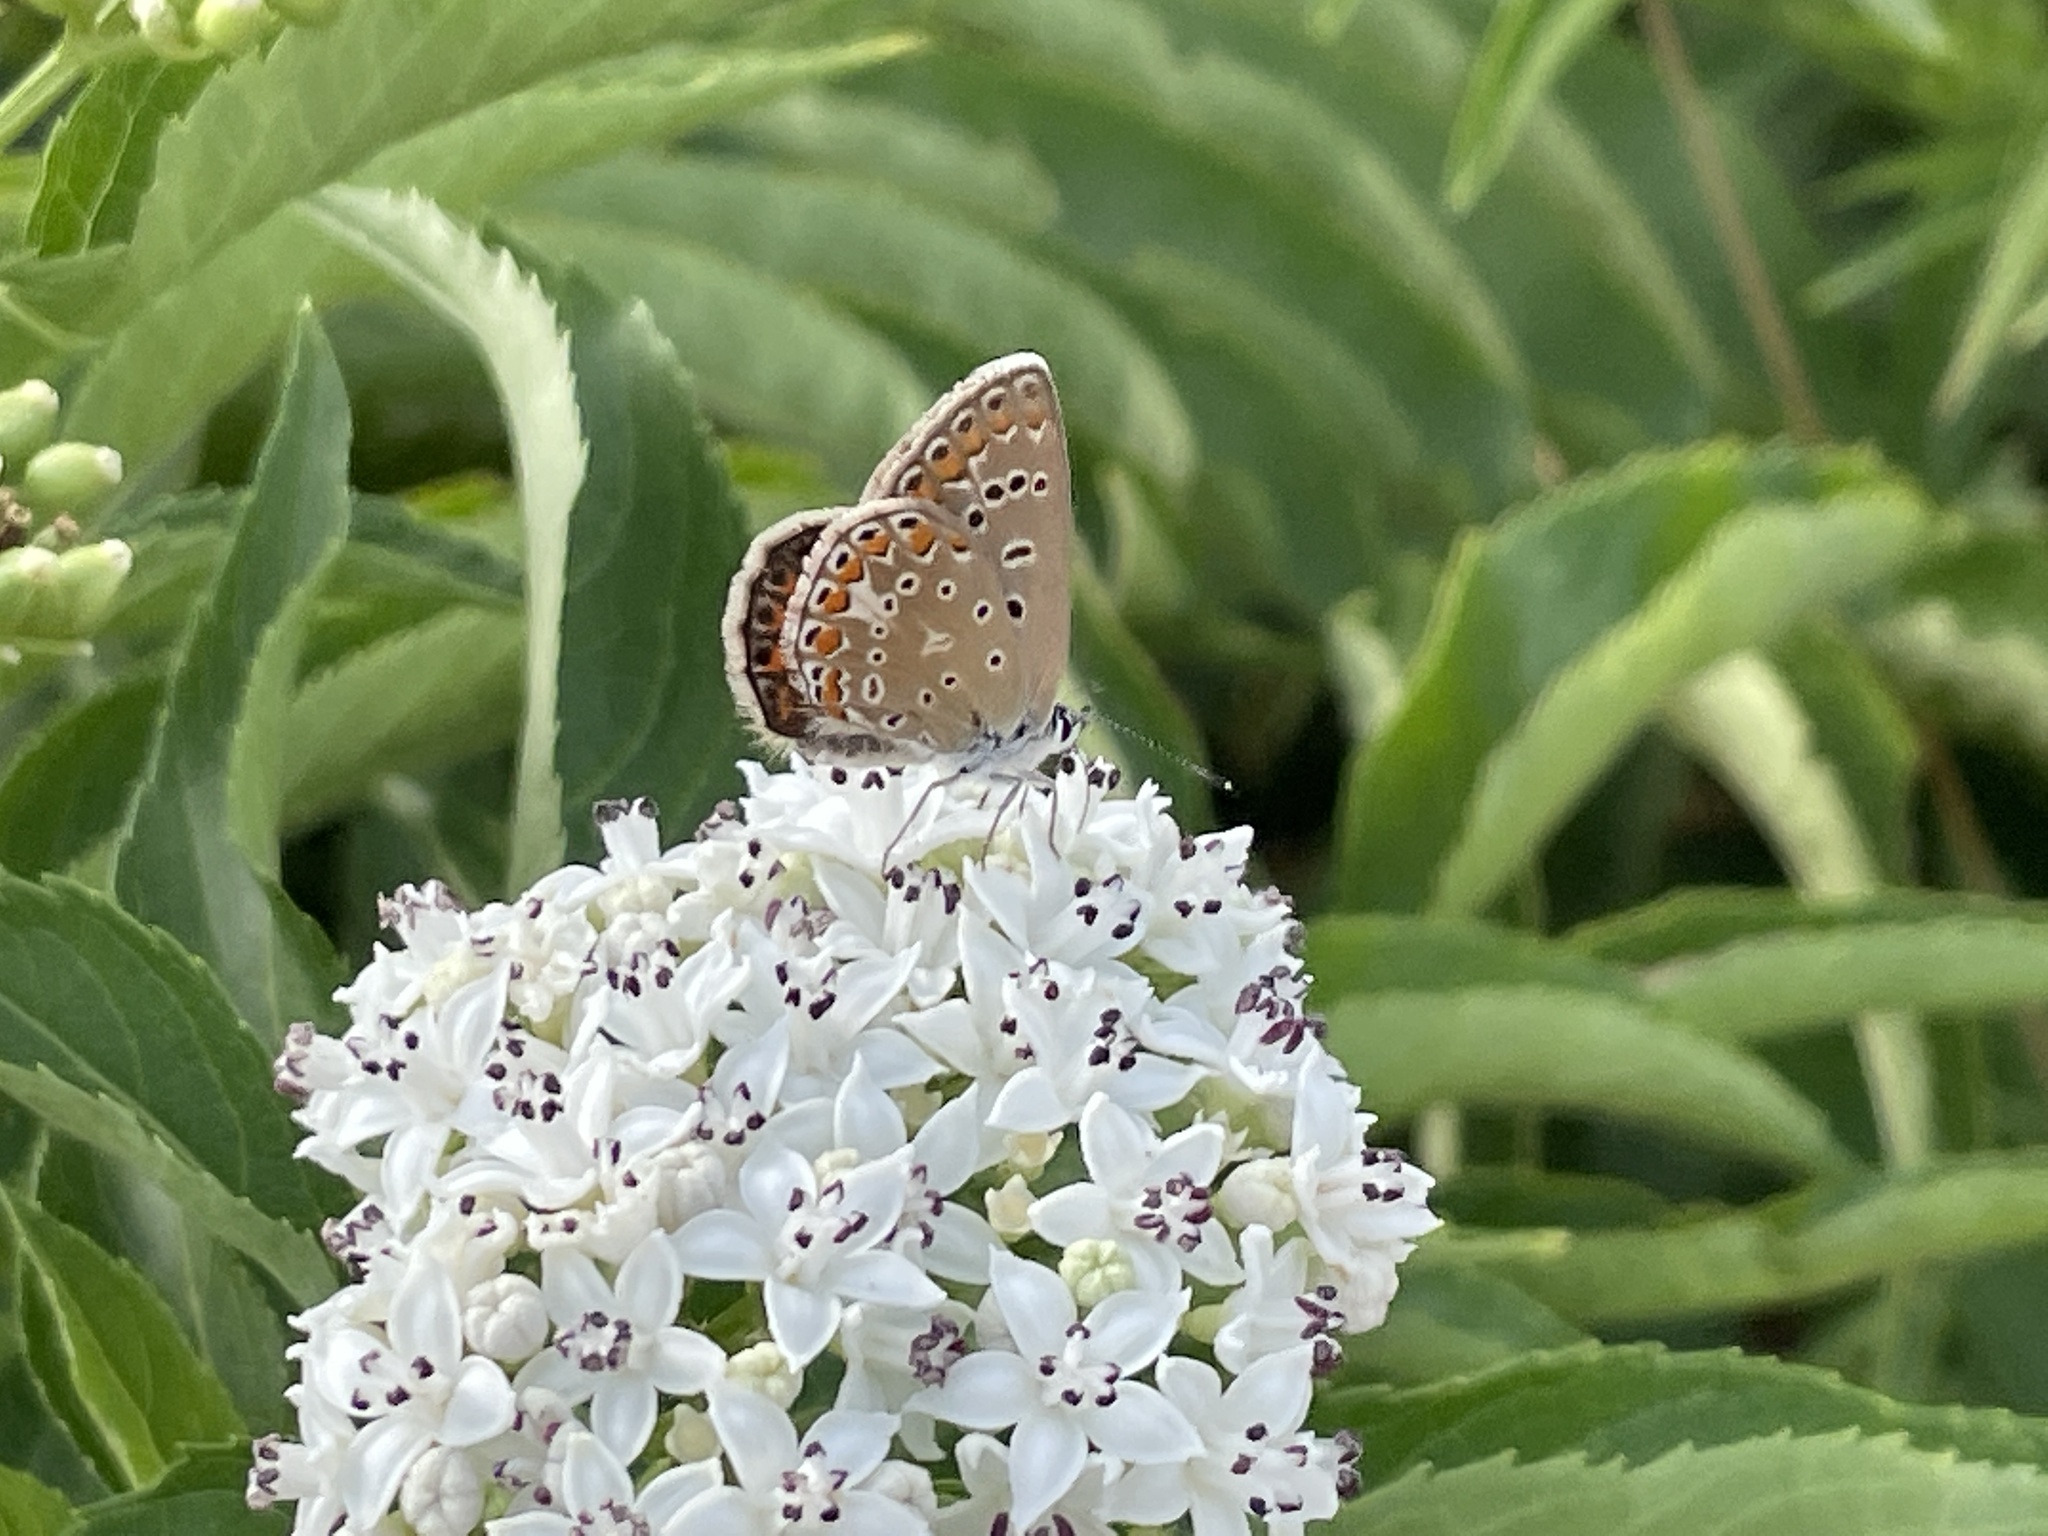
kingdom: Animalia
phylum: Arthropoda
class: Insecta
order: Lepidoptera
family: Lycaenidae
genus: Polyommatus
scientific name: Polyommatus icarus
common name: Common blue
